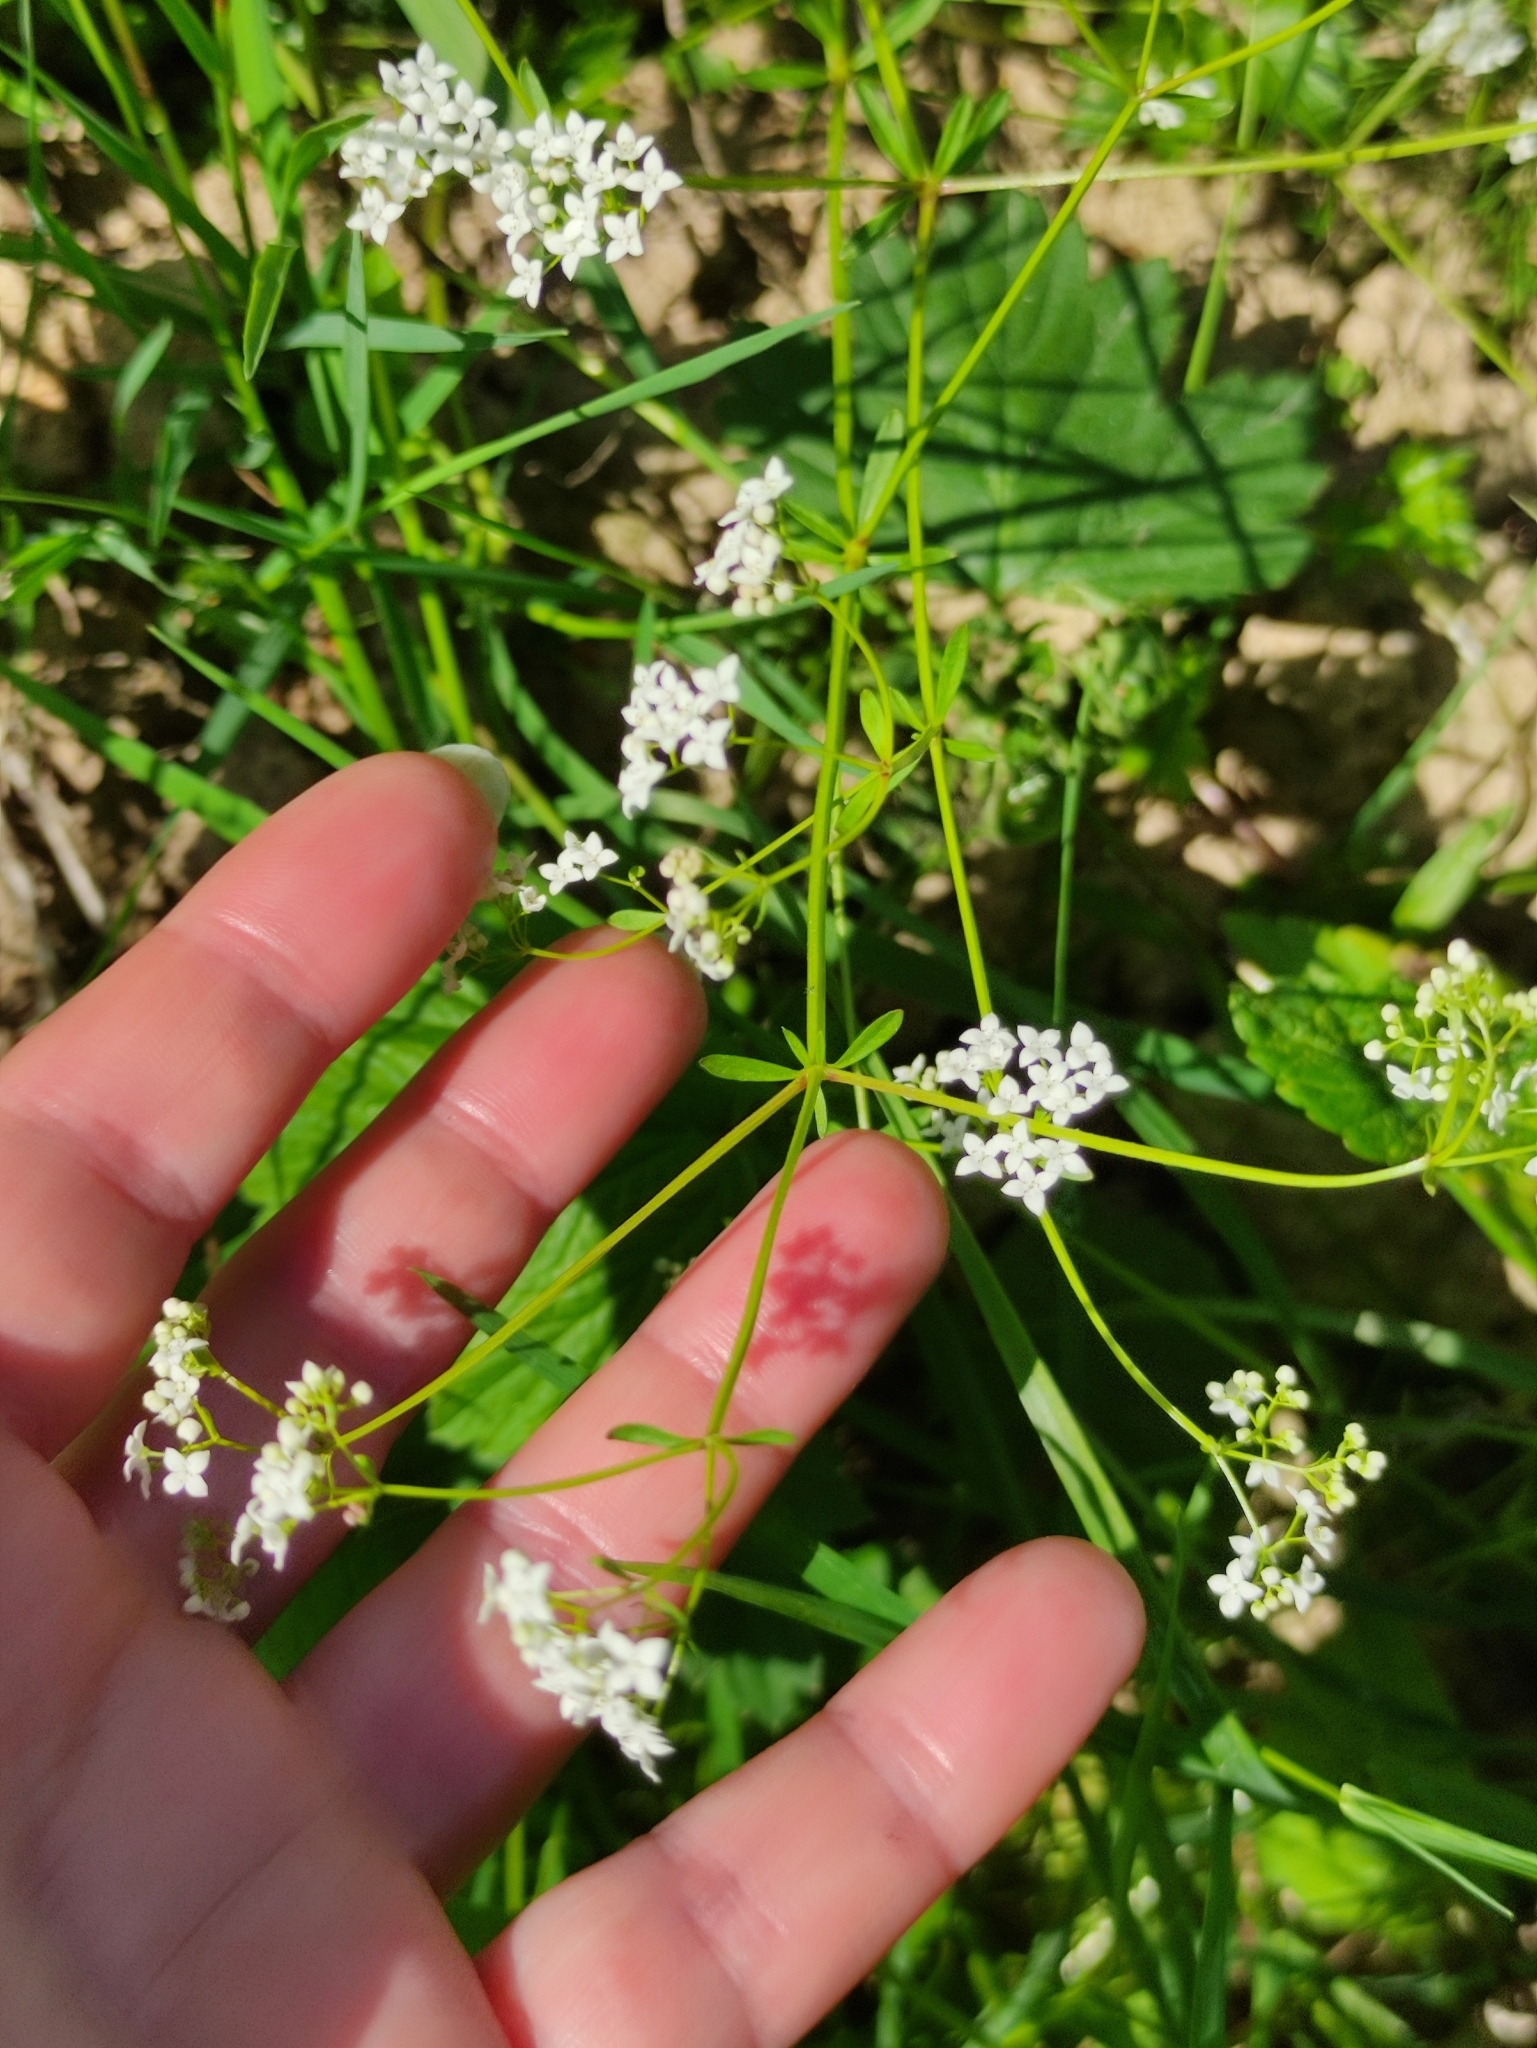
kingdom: Plantae
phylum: Tracheophyta
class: Magnoliopsida
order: Gentianales
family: Rubiaceae
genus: Galium
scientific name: Galium palustre
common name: Common marsh-bedstraw
